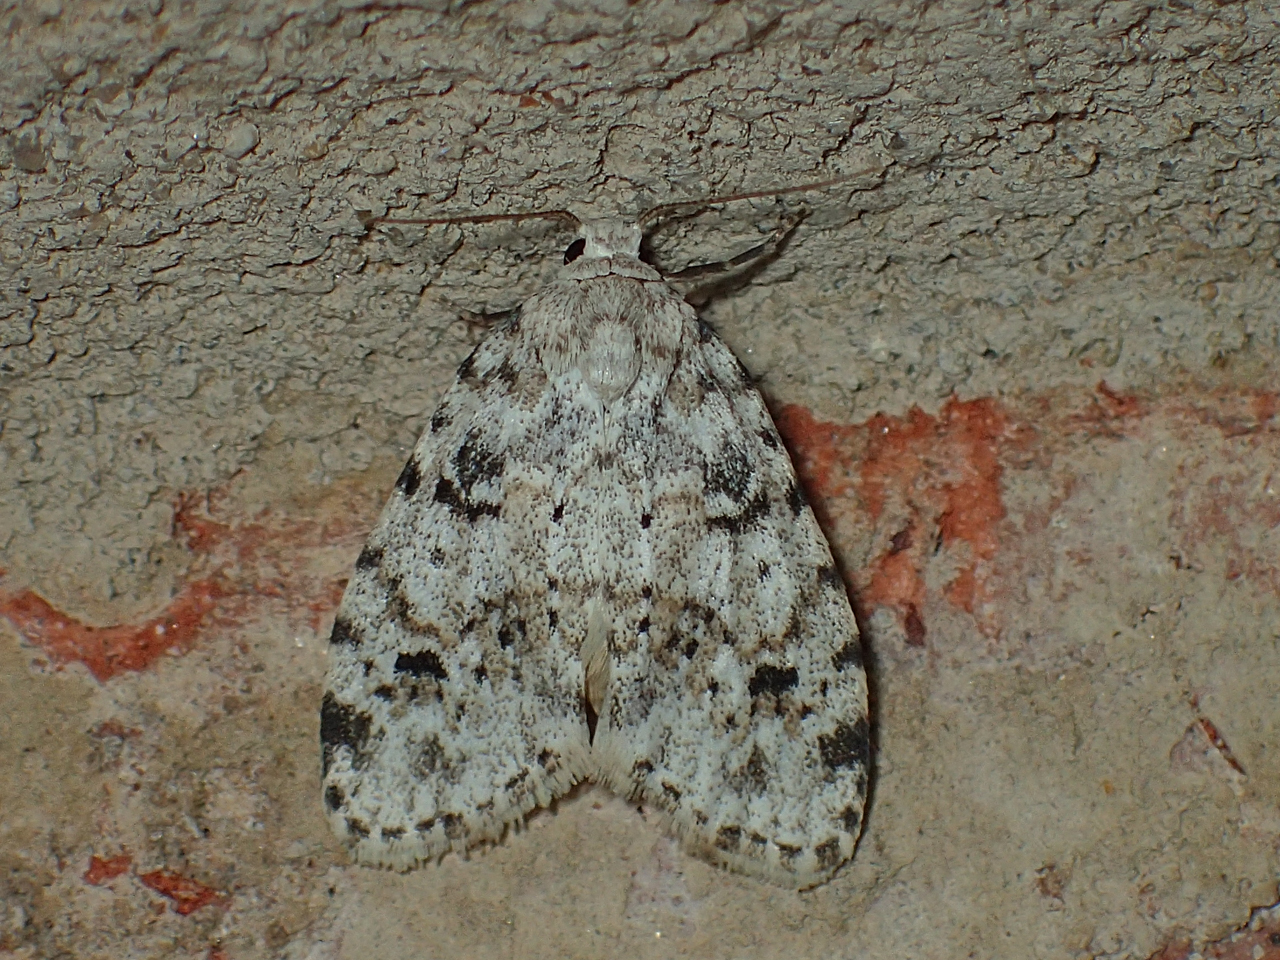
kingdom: Animalia
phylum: Arthropoda
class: Insecta
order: Lepidoptera
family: Erebidae
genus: Clemensia
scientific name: Clemensia ochreata
